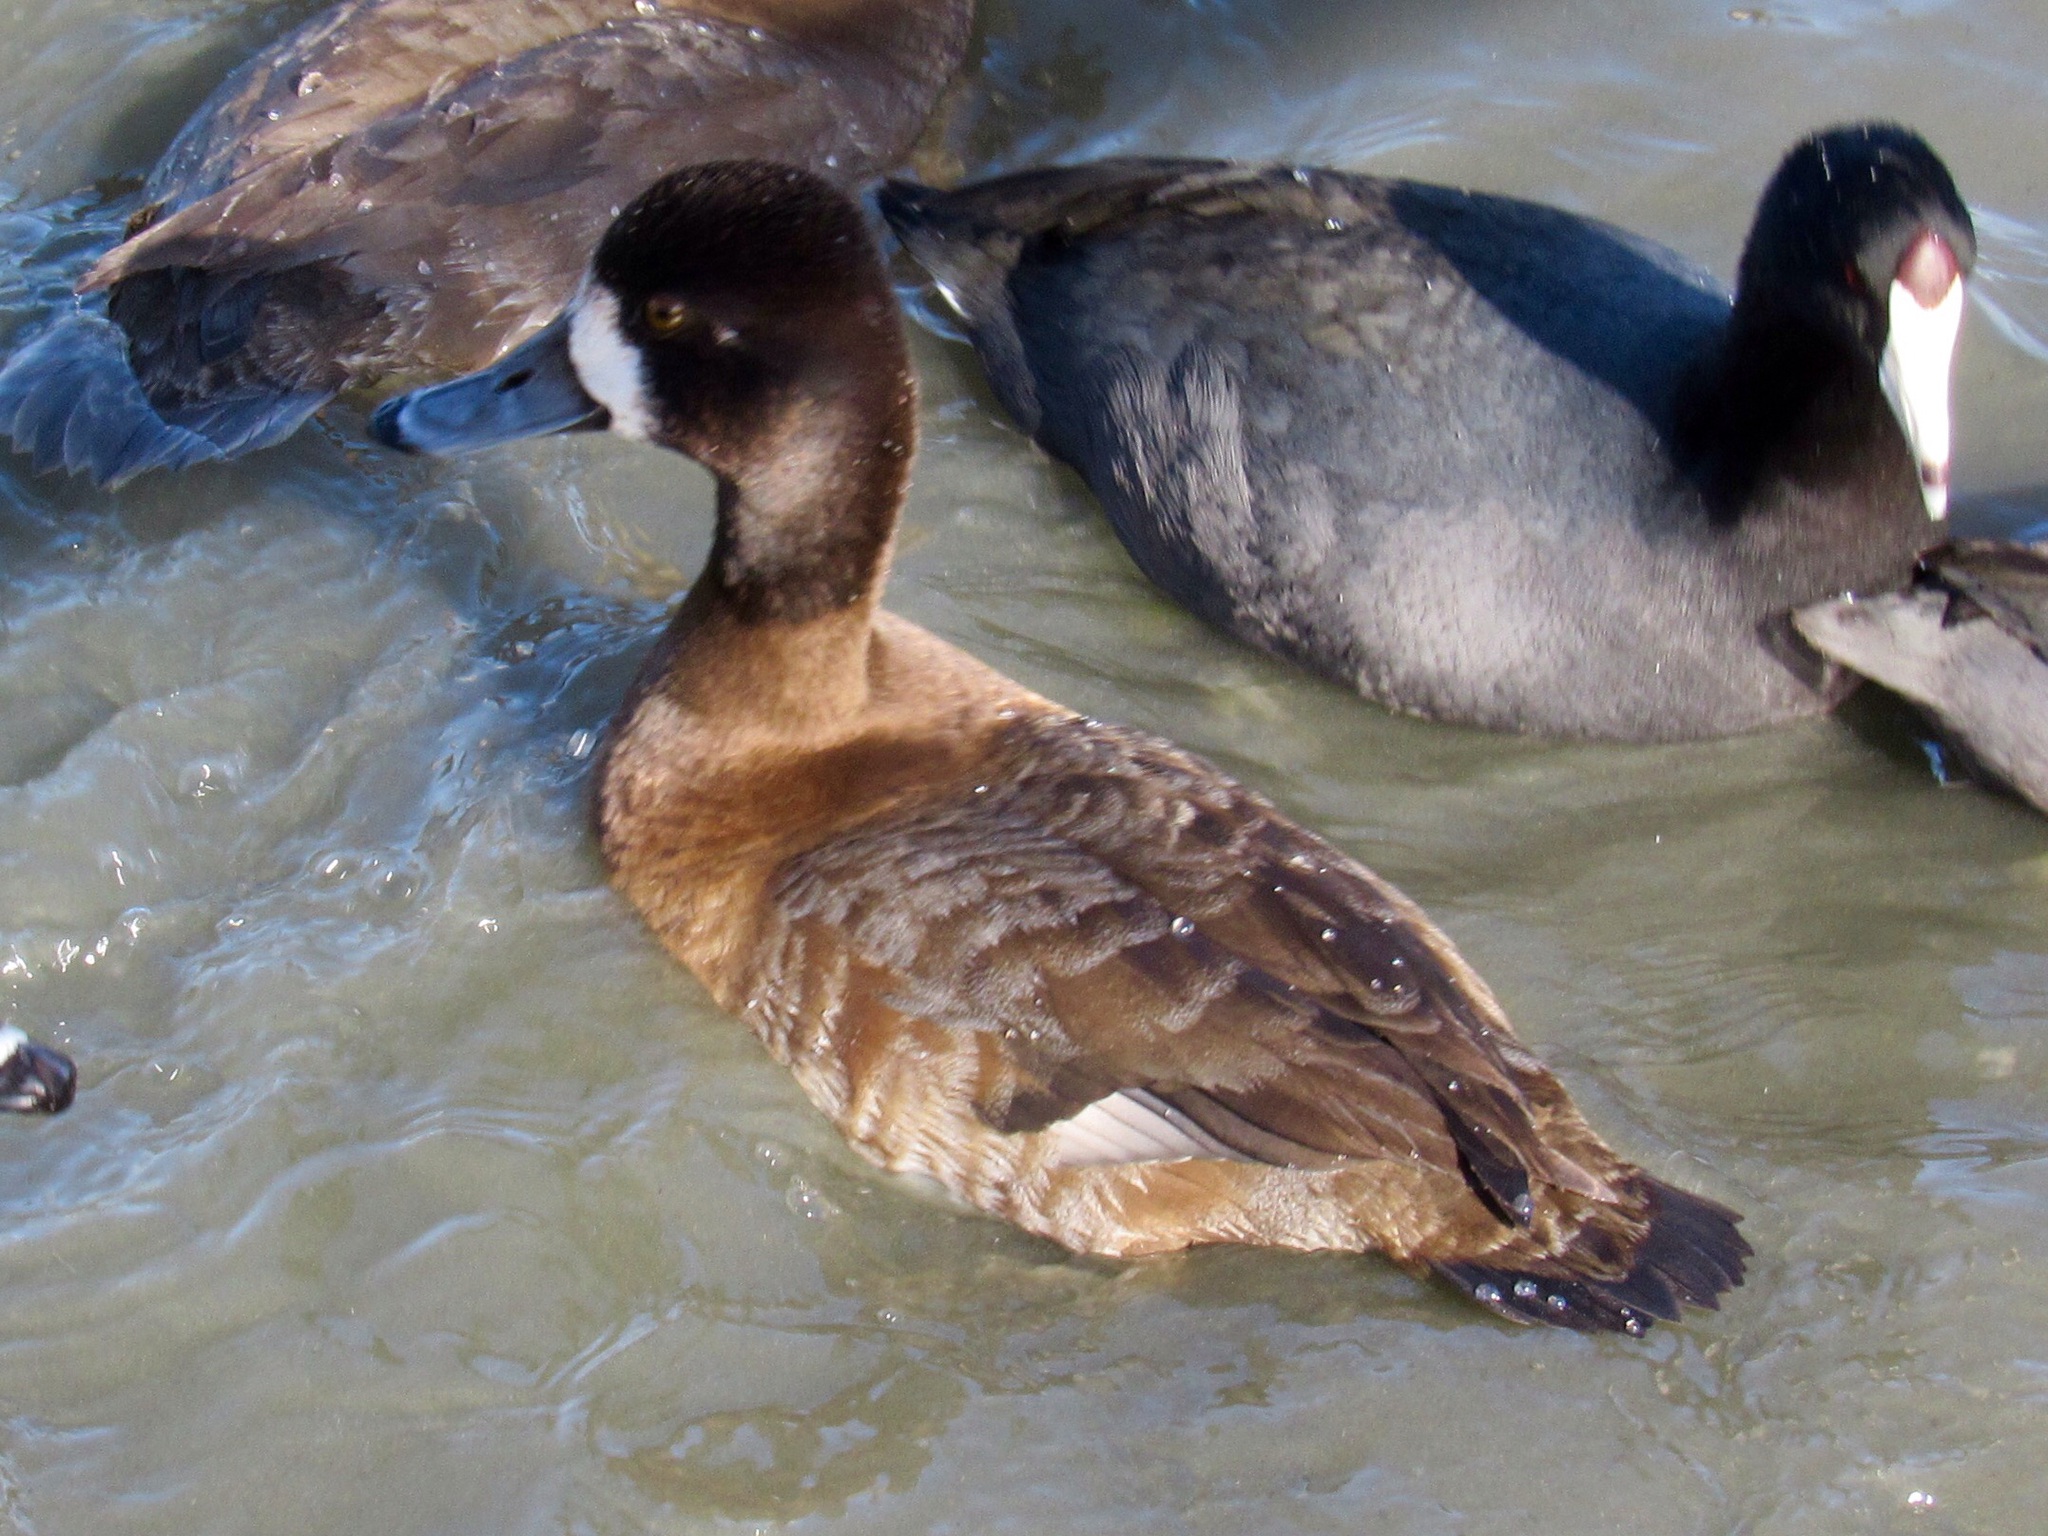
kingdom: Animalia
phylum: Chordata
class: Aves
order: Anseriformes
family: Anatidae
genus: Aythya
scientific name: Aythya affinis
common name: Lesser scaup
